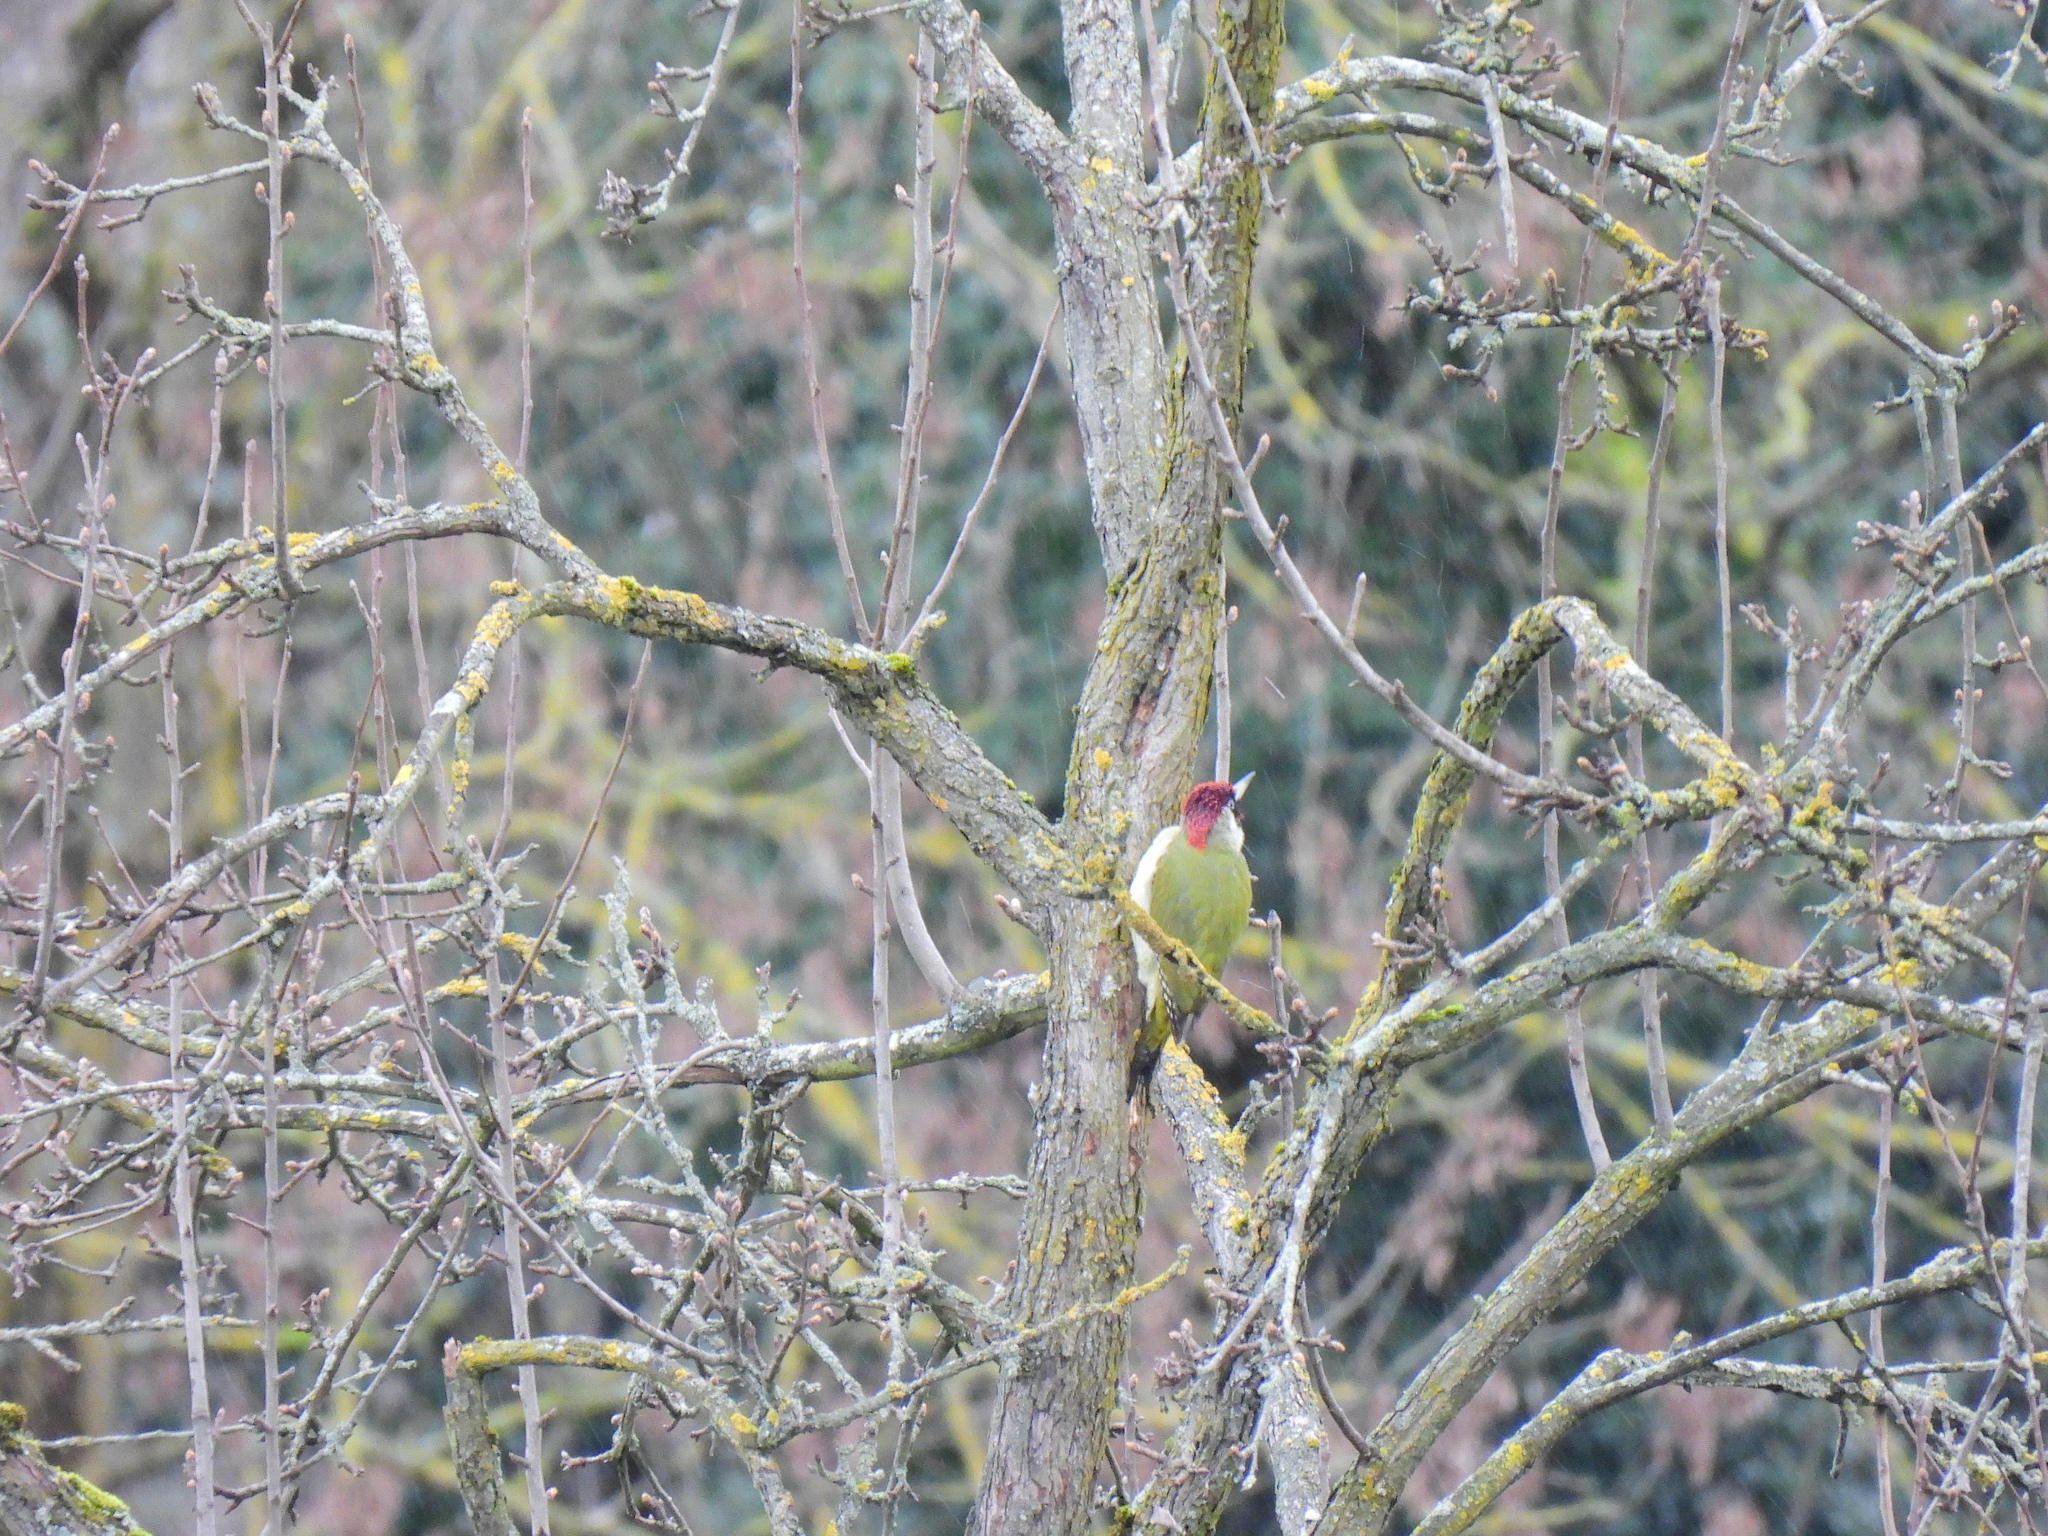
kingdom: Animalia
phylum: Chordata
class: Aves
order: Piciformes
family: Picidae
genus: Picus
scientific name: Picus viridis
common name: European green woodpecker
